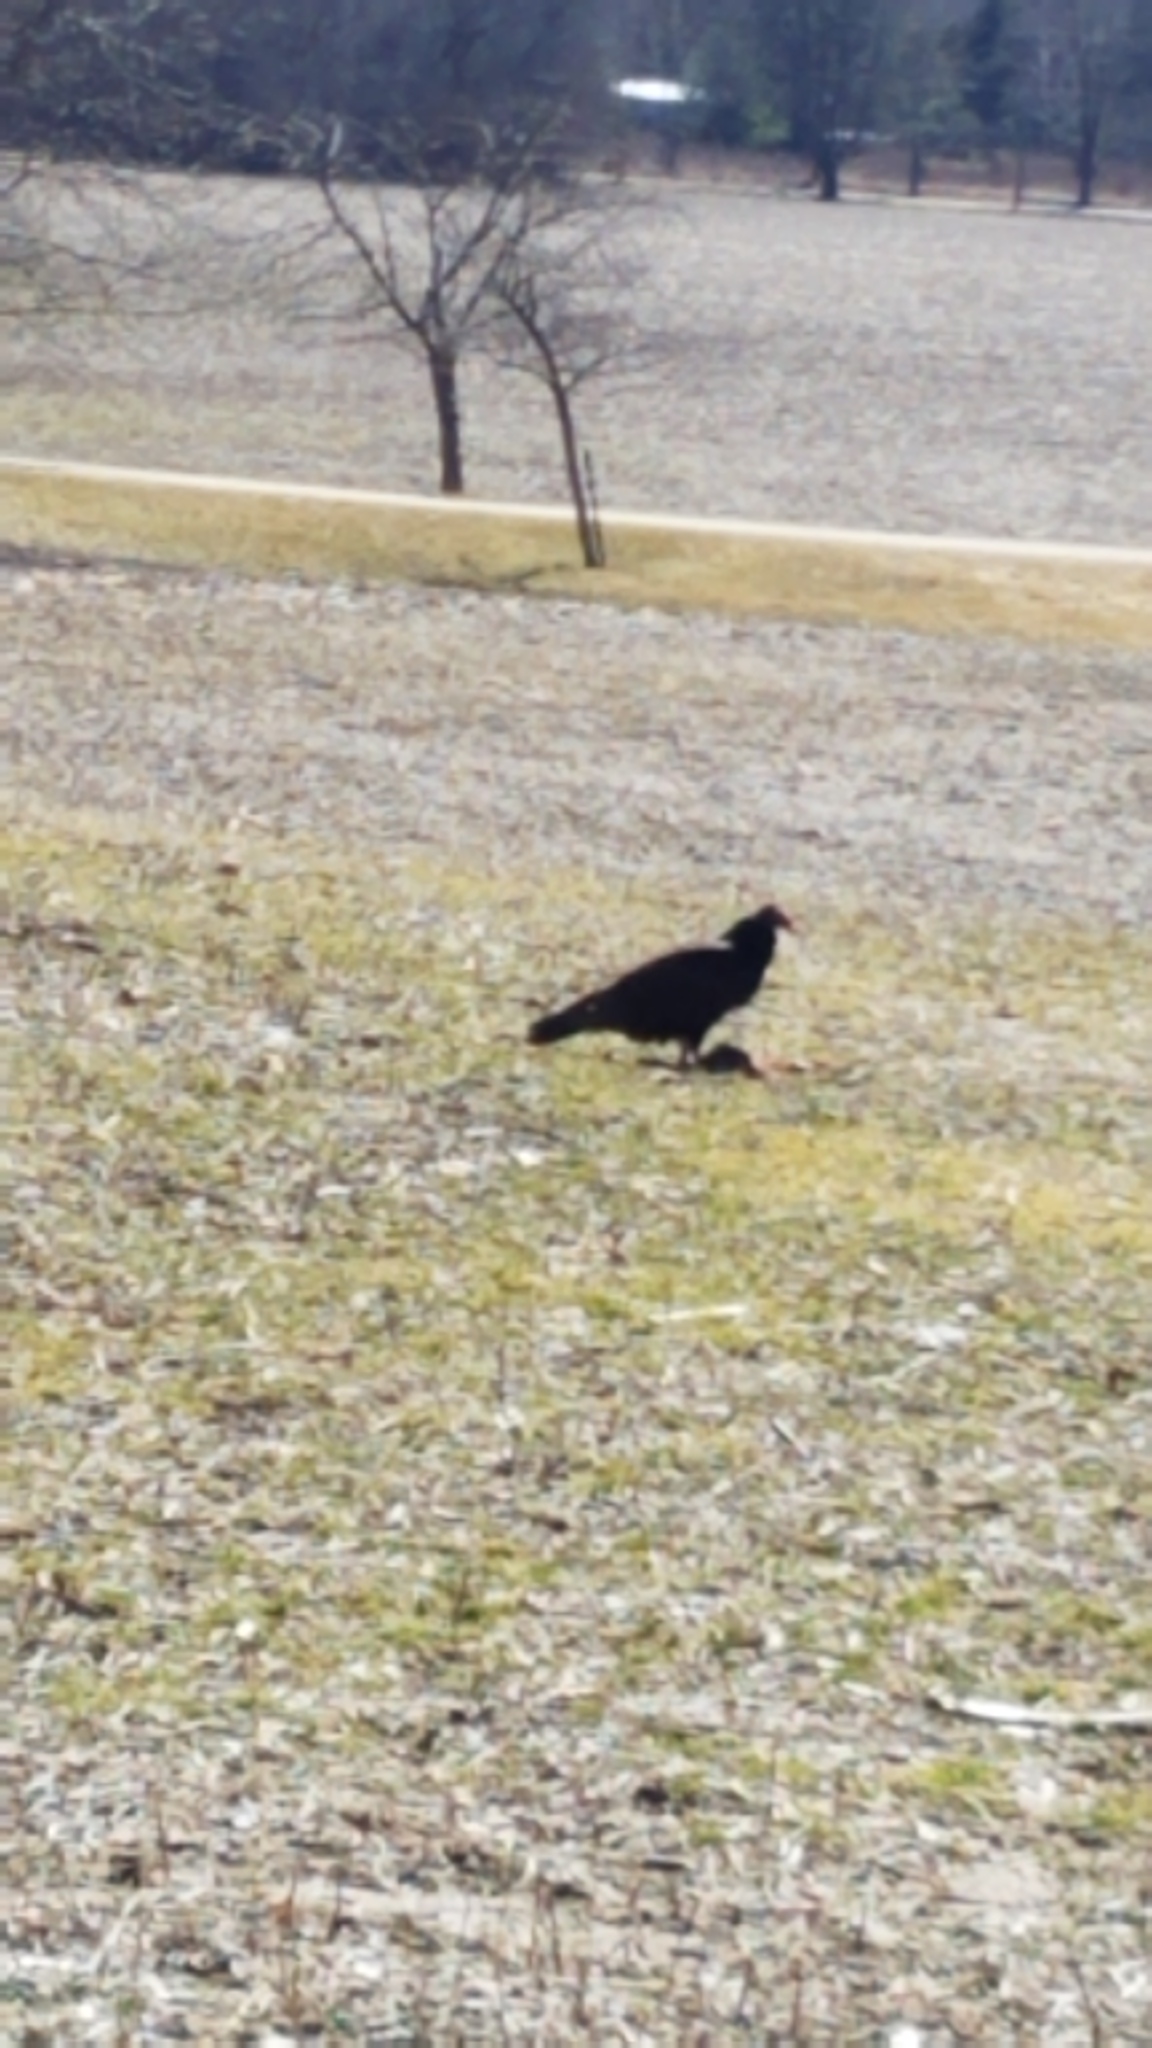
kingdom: Animalia
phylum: Chordata
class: Aves
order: Accipitriformes
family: Cathartidae
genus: Cathartes
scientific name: Cathartes aura
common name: Turkey vulture
